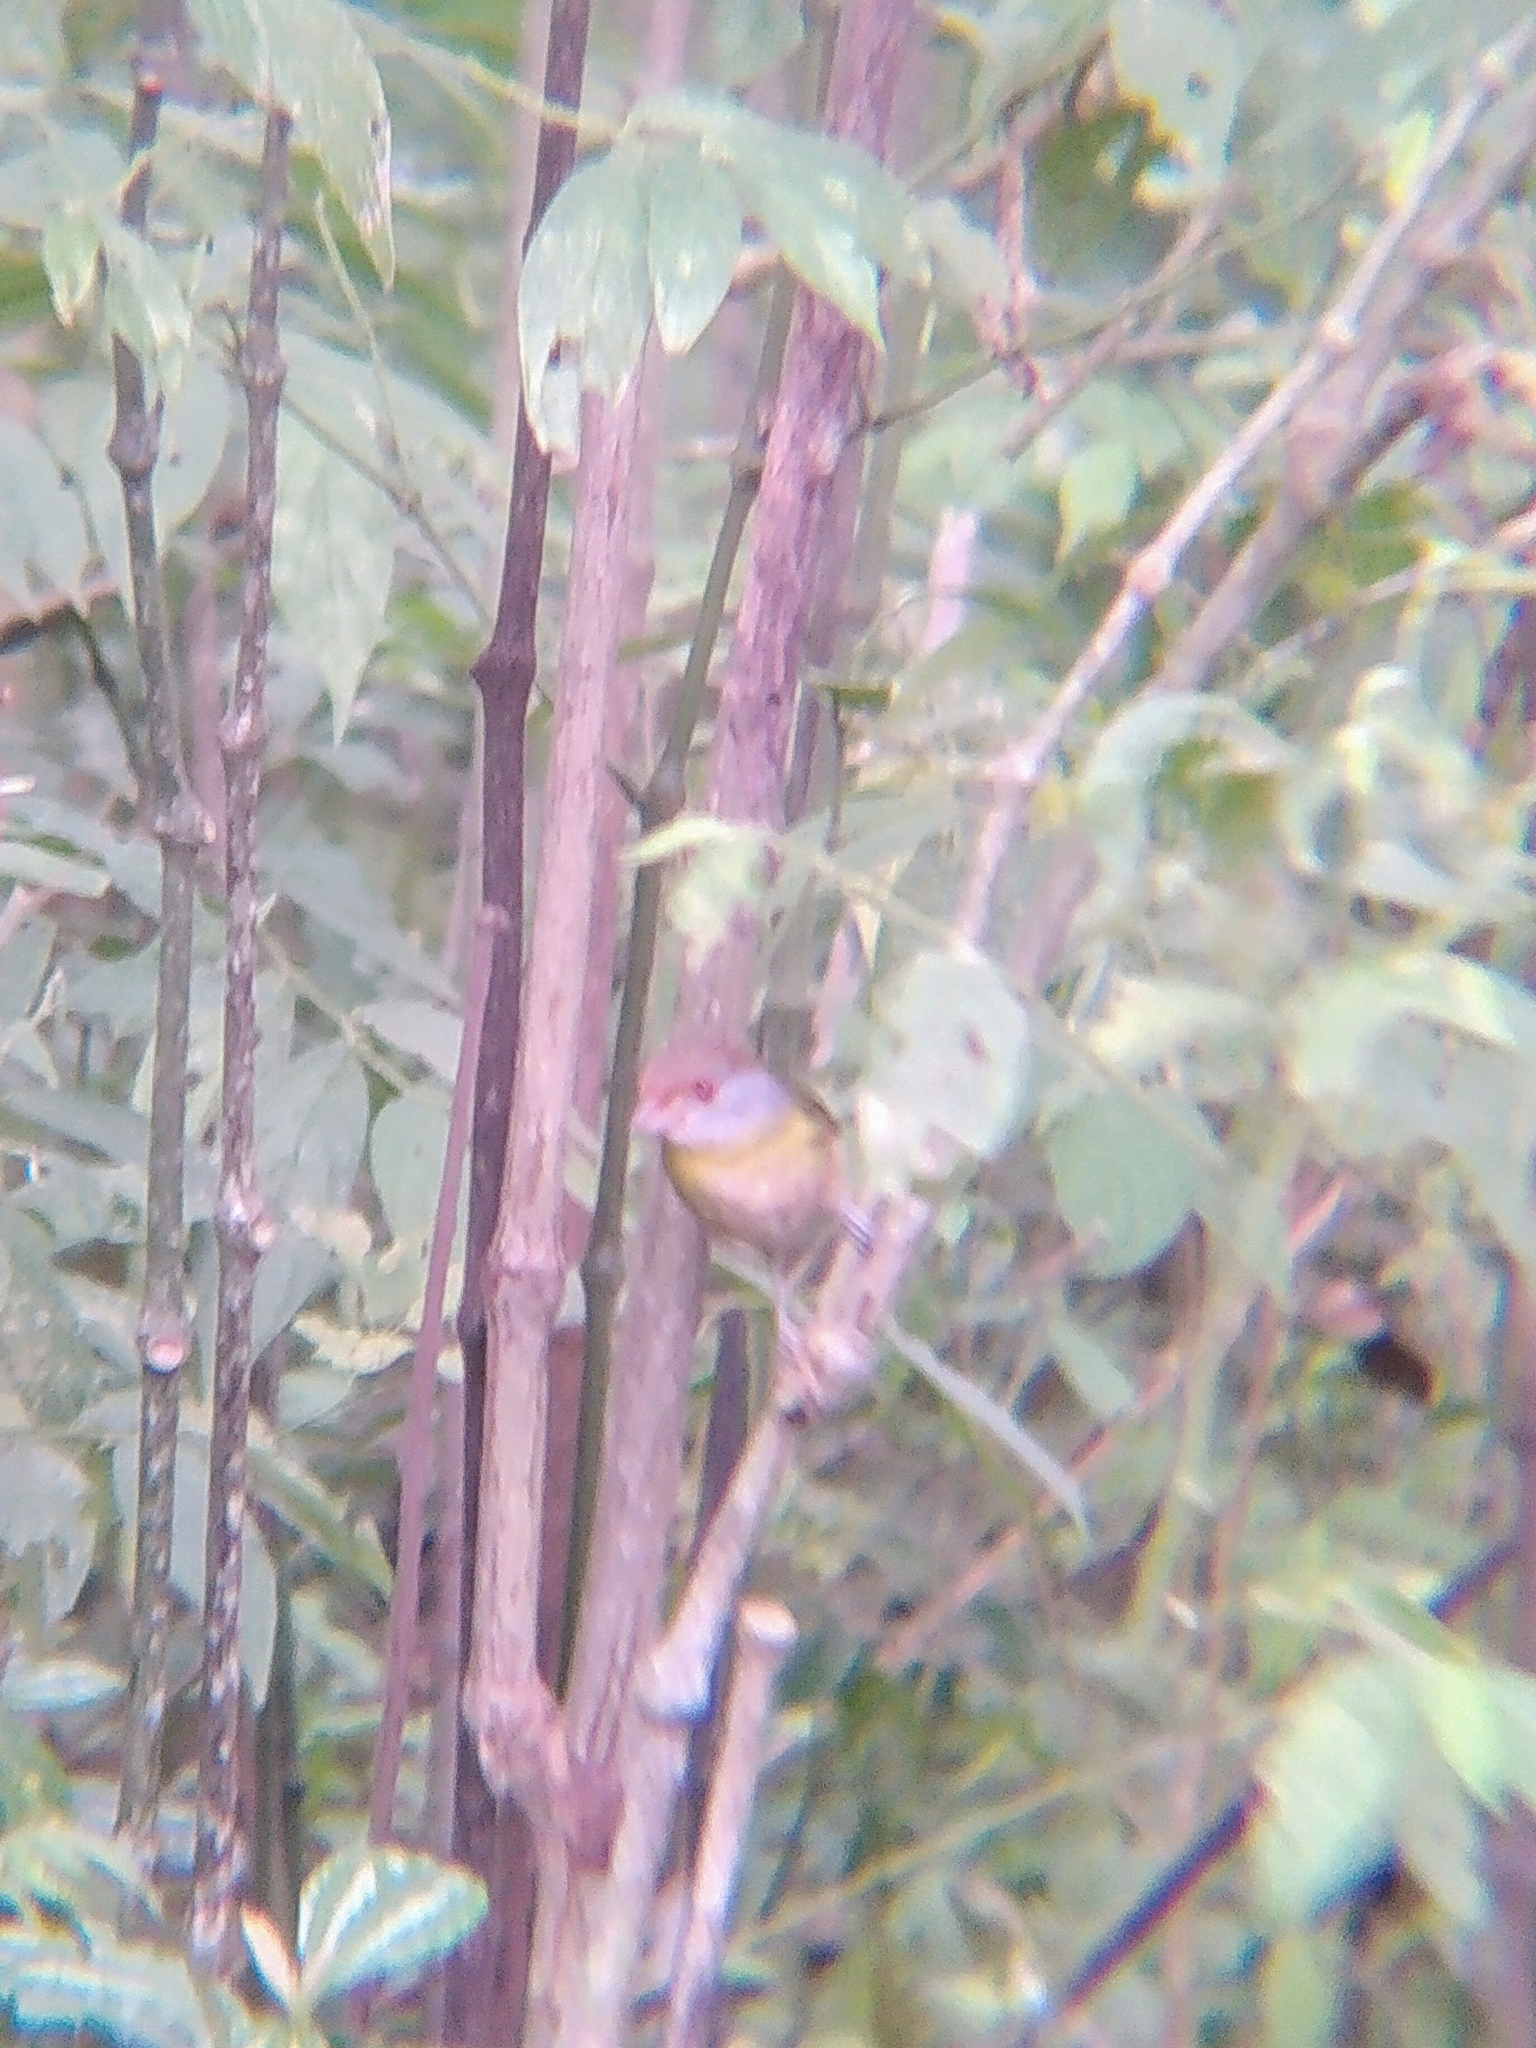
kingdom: Animalia
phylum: Chordata
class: Aves
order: Passeriformes
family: Vireonidae
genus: Cyclarhis
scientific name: Cyclarhis gujanensis
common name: Rufous-browed peppershrike
